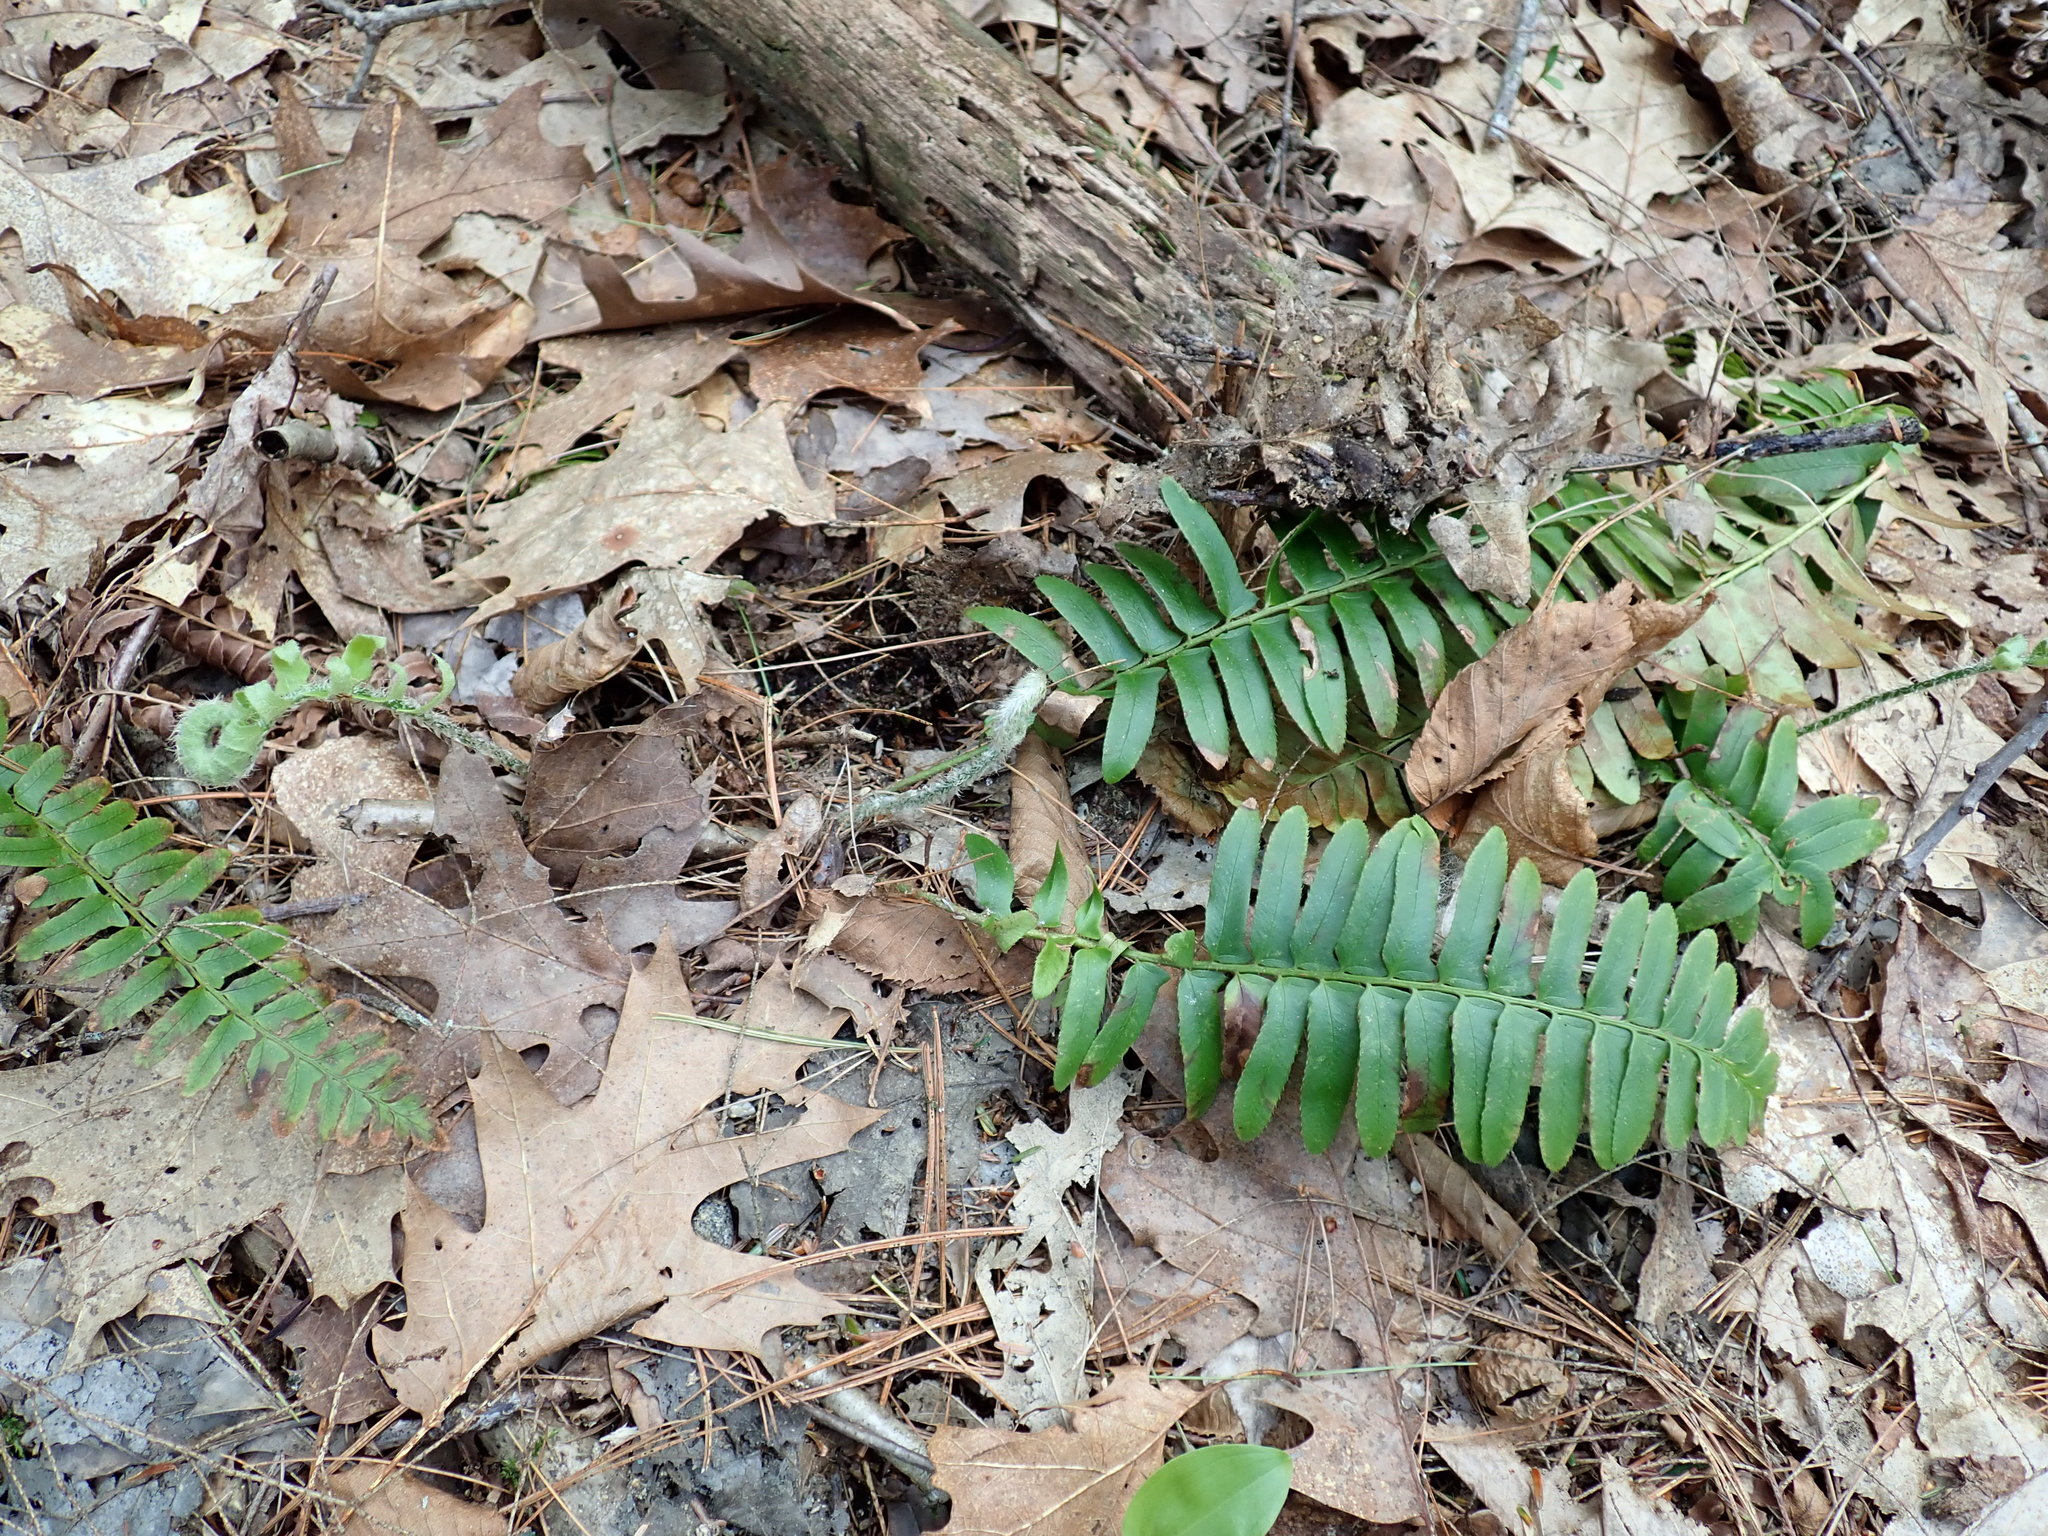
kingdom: Plantae
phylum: Tracheophyta
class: Polypodiopsida
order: Polypodiales
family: Dryopteridaceae
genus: Polystichum
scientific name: Polystichum acrostichoides
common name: Christmas fern
